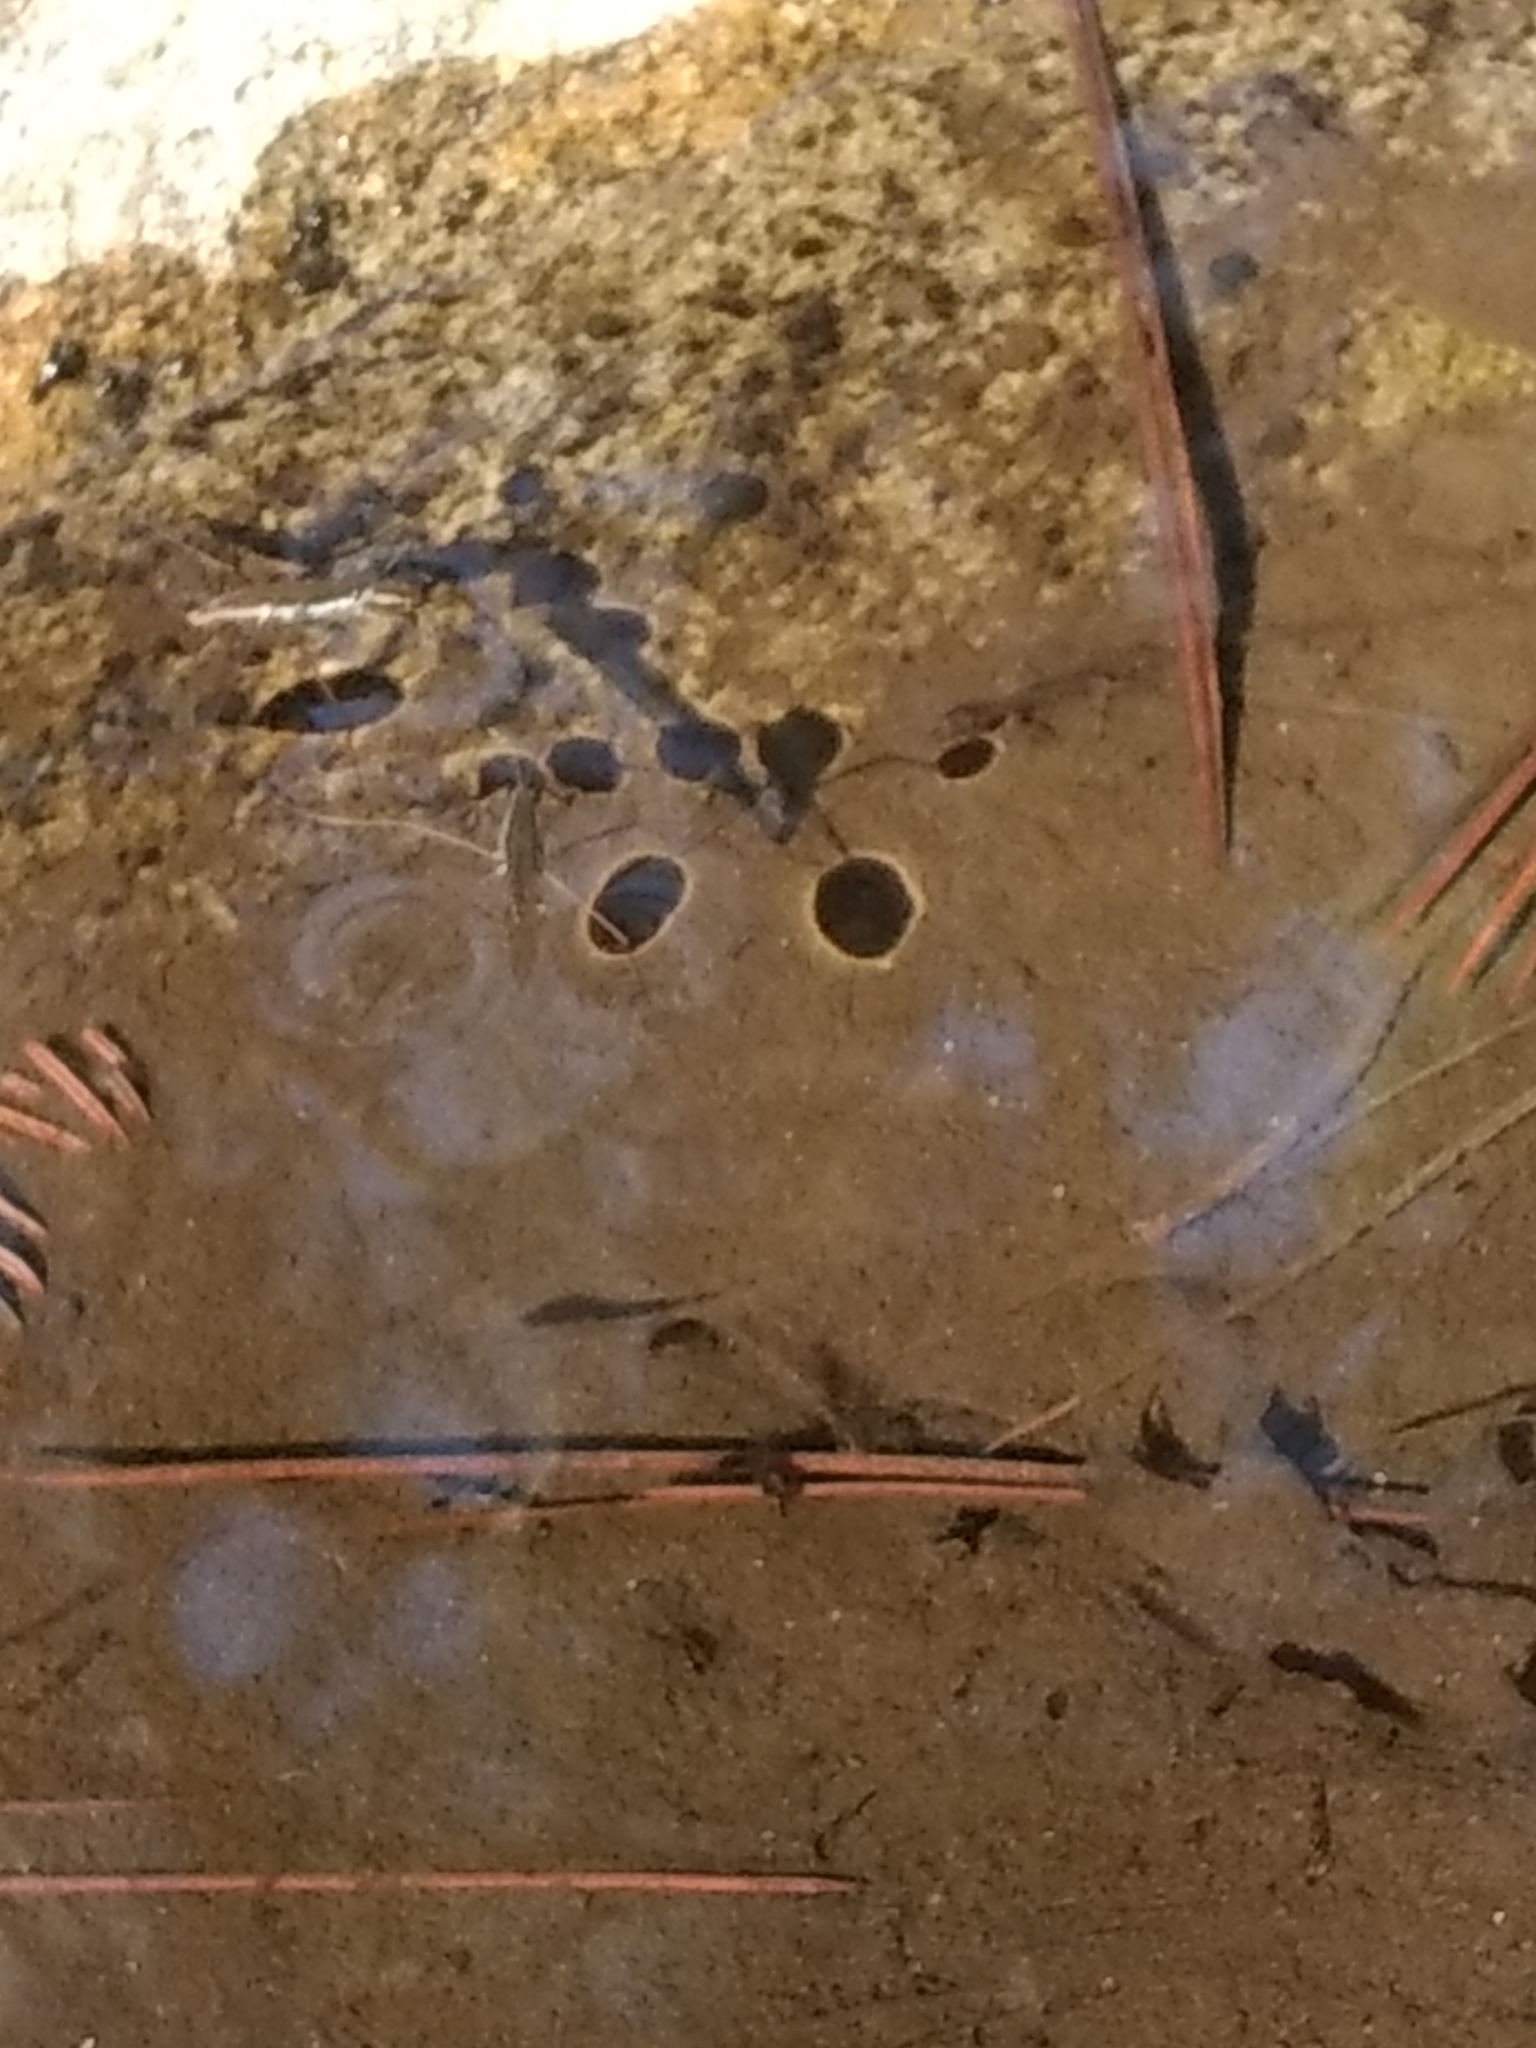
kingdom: Animalia
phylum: Arthropoda
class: Insecta
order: Hemiptera
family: Gerridae
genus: Aquarius
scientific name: Aquarius remigis
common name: Common water strider
